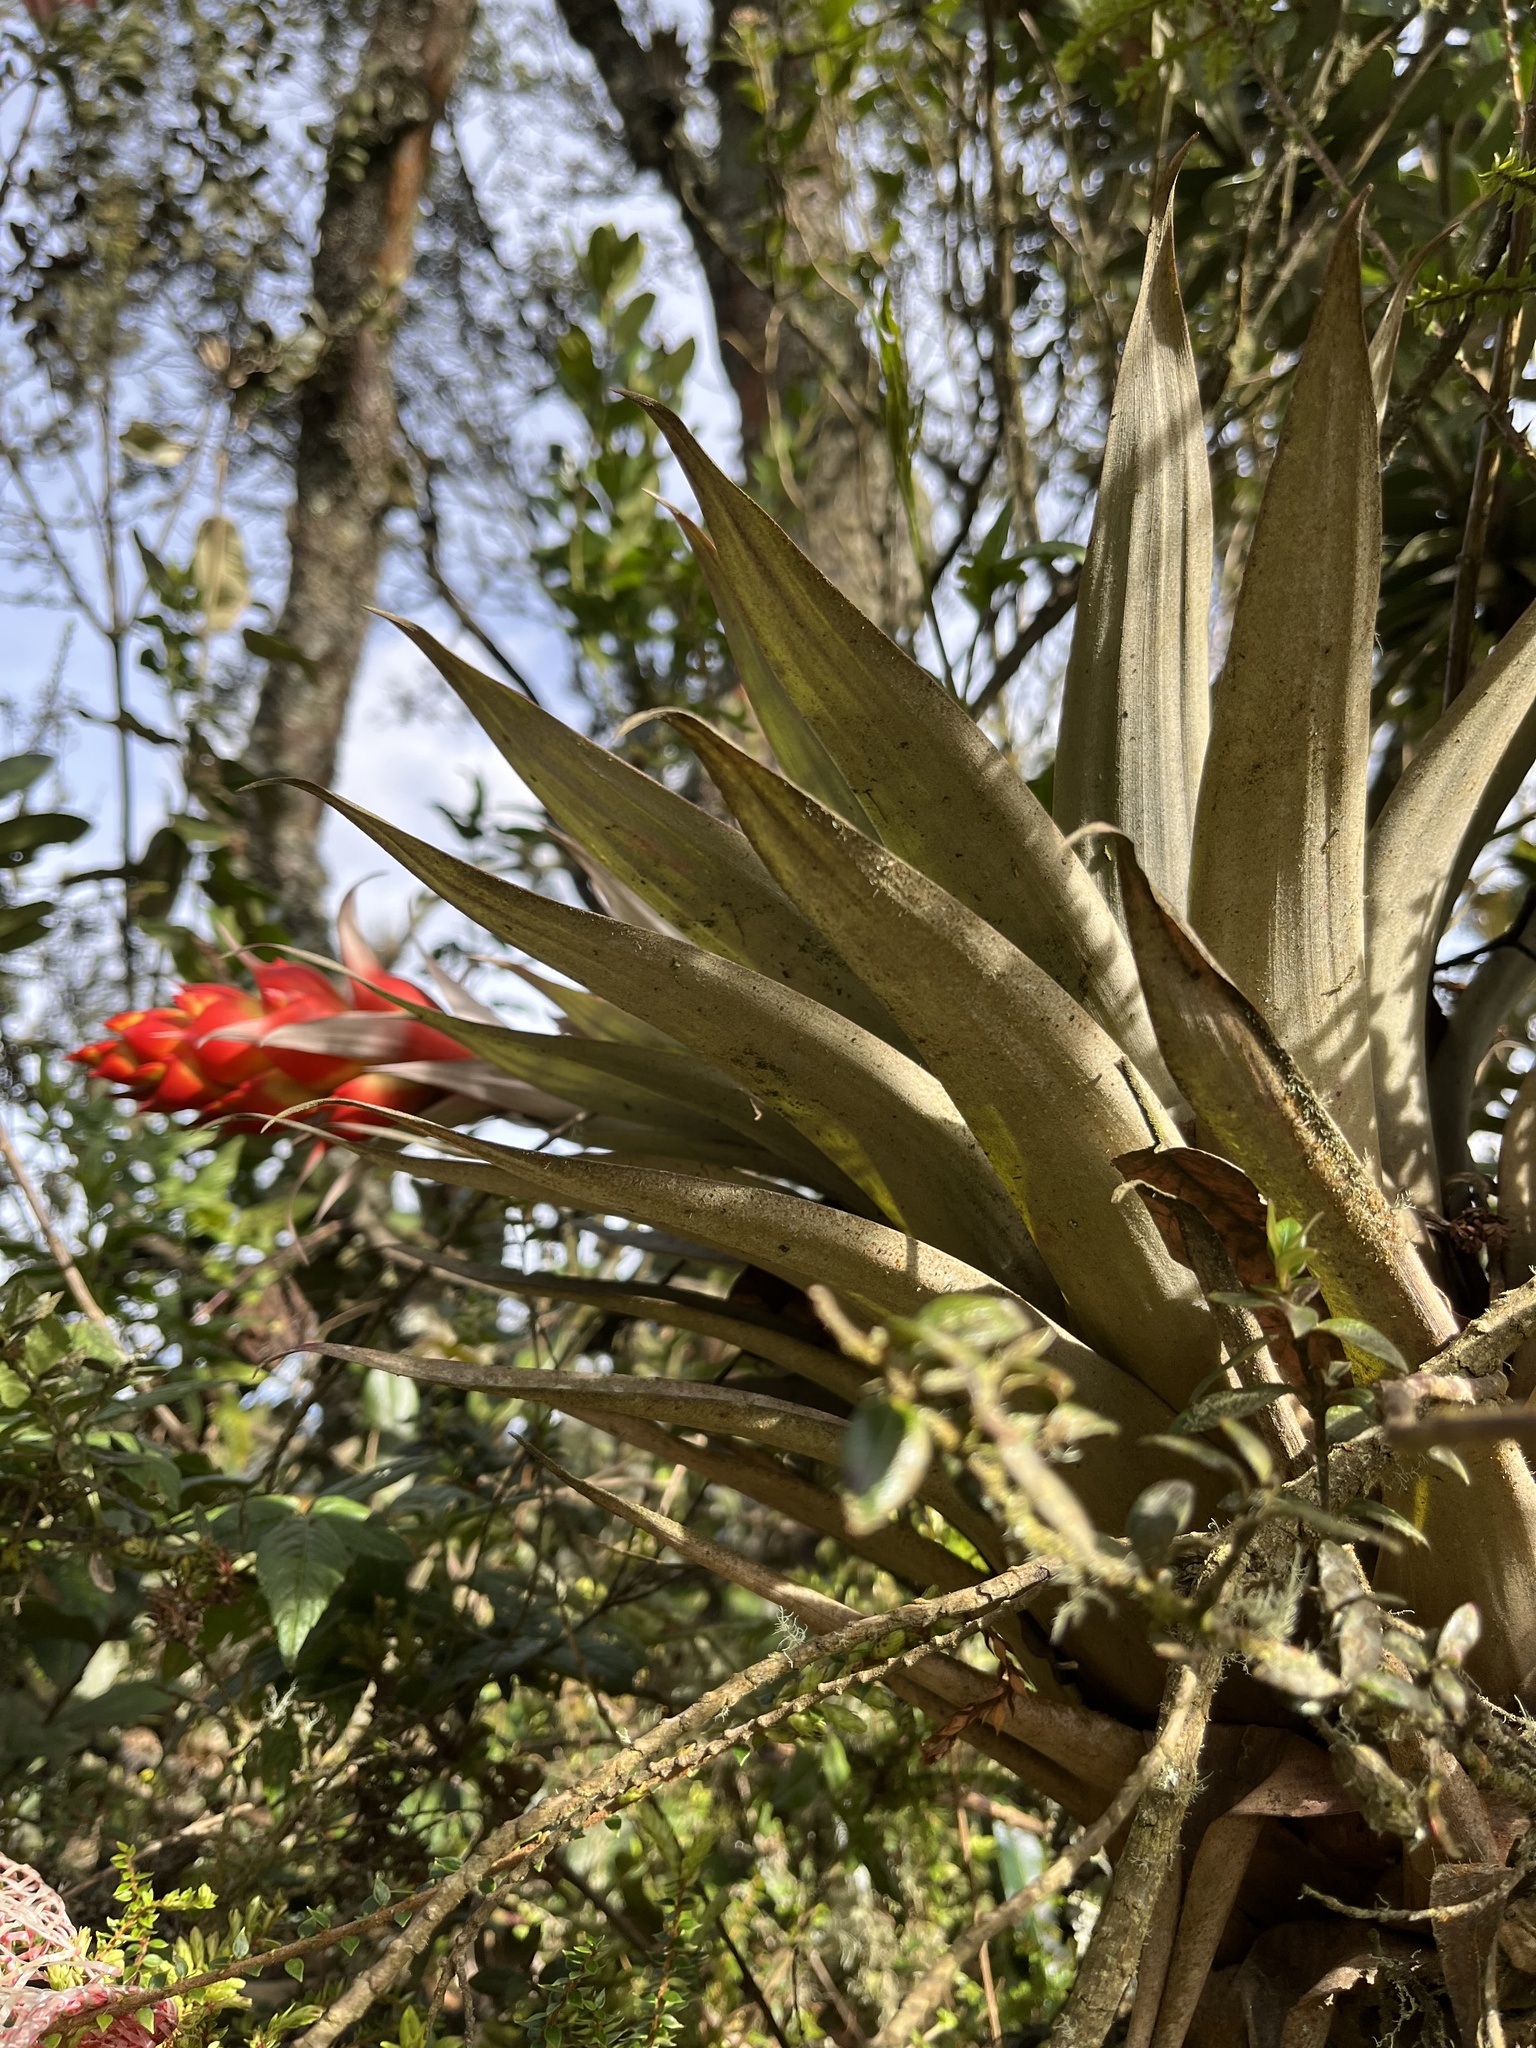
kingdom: Plantae
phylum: Tracheophyta
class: Liliopsida
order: Poales
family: Bromeliaceae
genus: Tillandsia
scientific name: Tillandsia turneri
